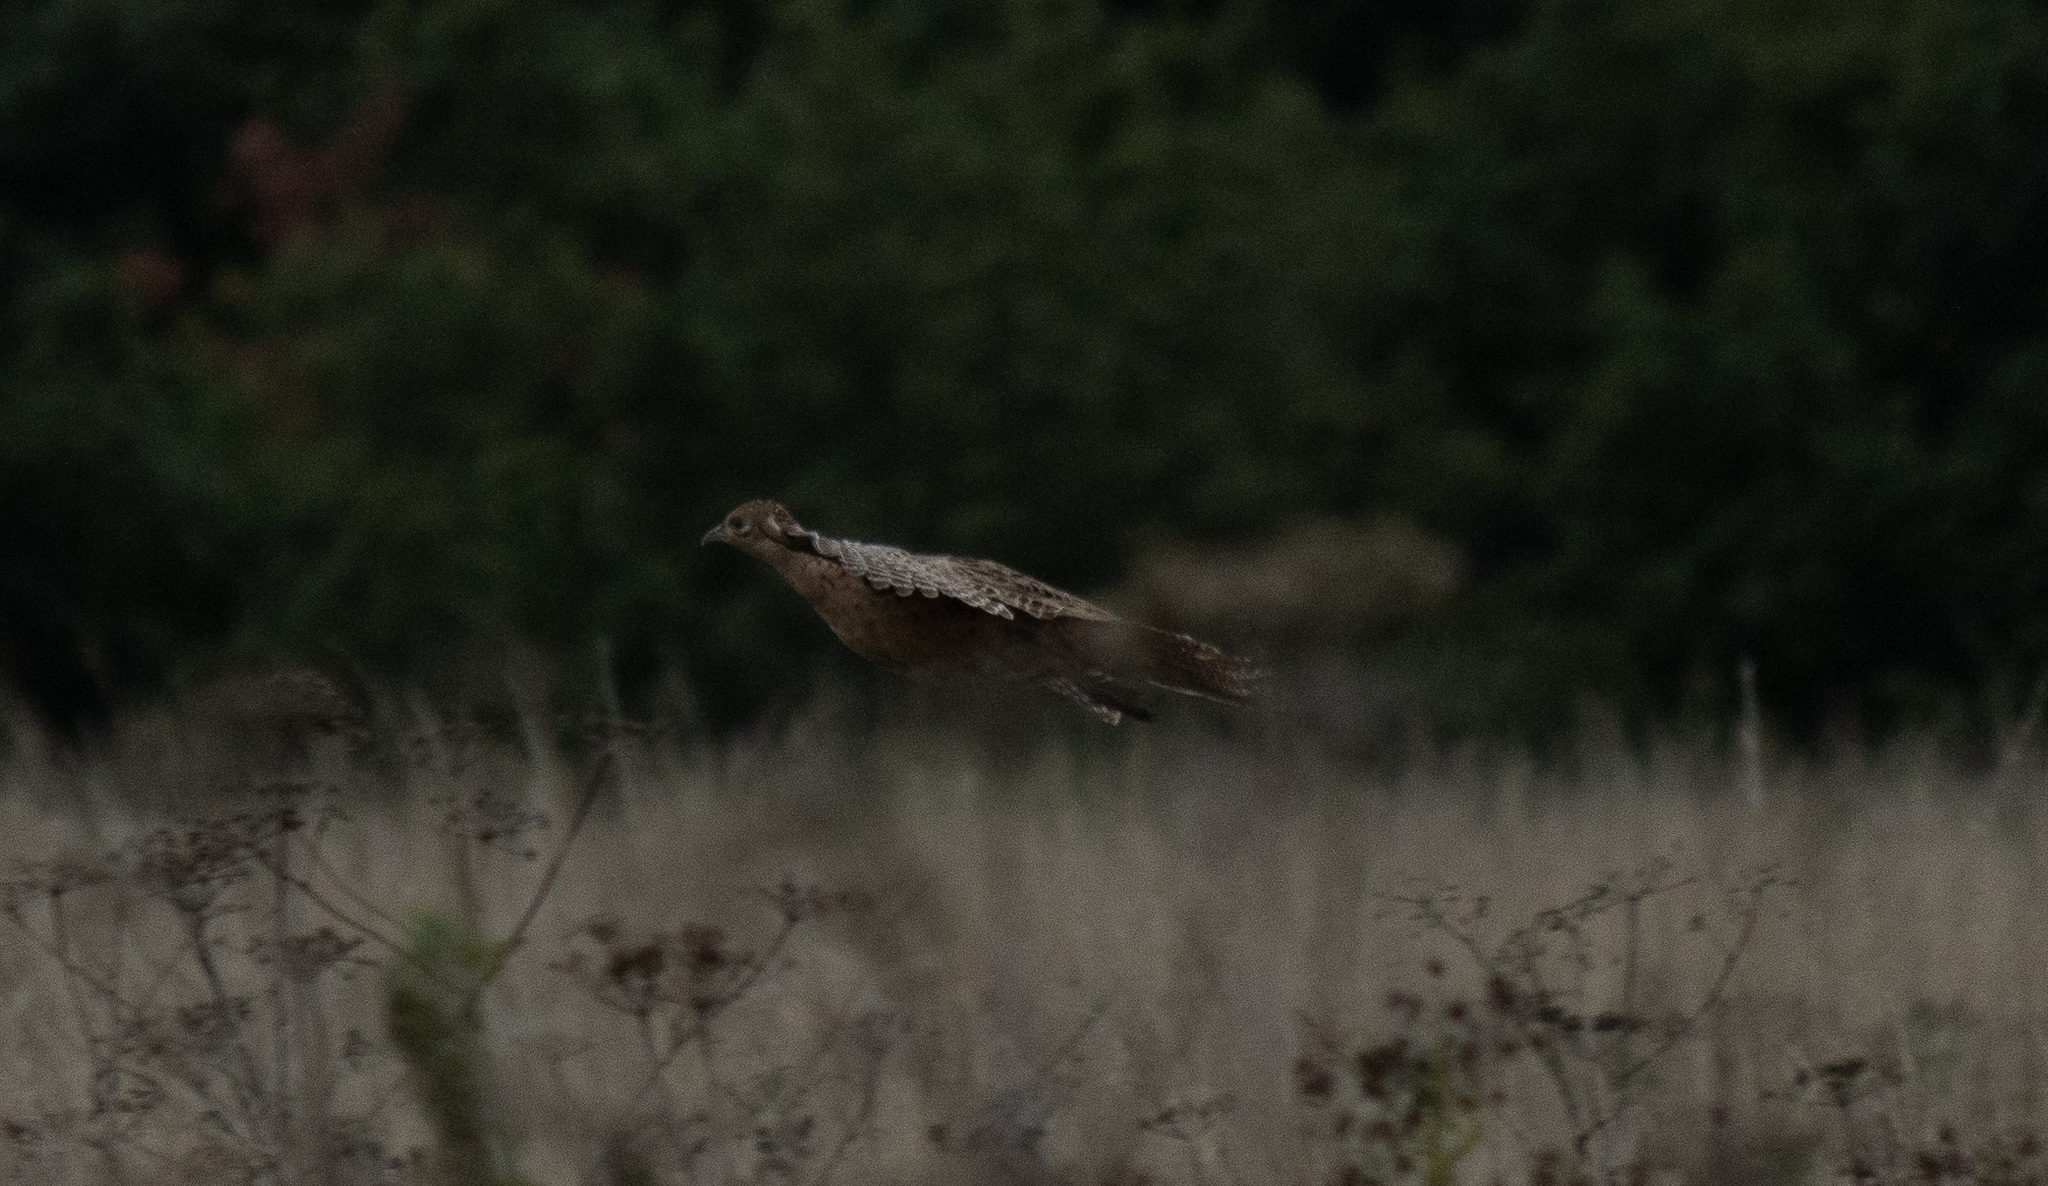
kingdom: Animalia
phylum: Chordata
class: Aves
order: Galliformes
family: Phasianidae
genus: Phasianus
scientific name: Phasianus colchicus
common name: Common pheasant
